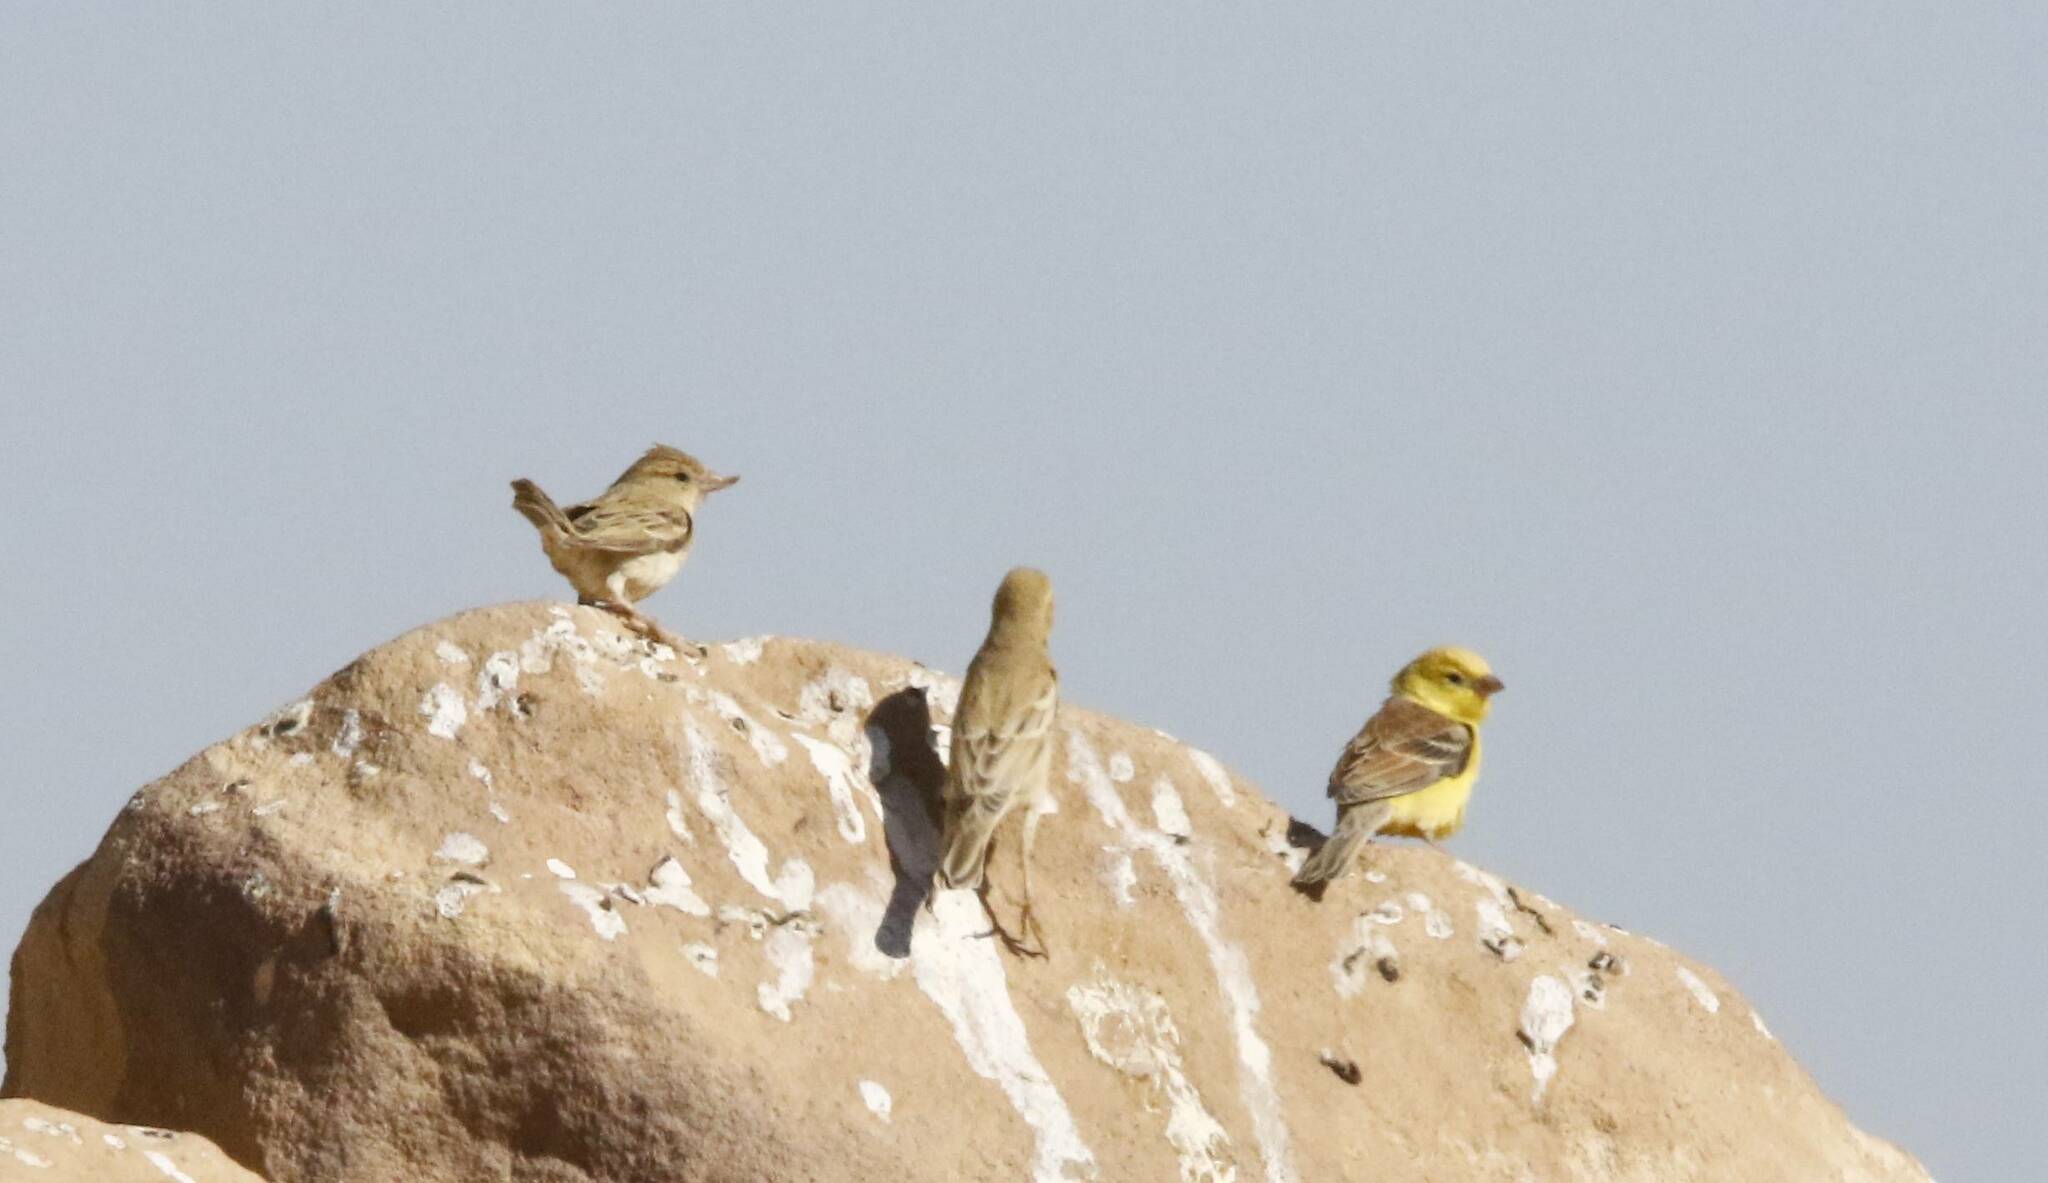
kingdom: Animalia
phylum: Chordata
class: Aves
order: Passeriformes
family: Passeridae
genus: Passer
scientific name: Passer luteus
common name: Sudan golden sparrow
